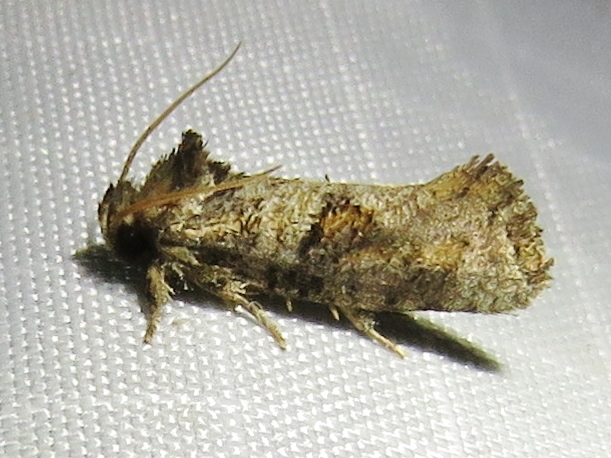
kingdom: Animalia
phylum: Arthropoda
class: Insecta
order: Lepidoptera
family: Tineidae
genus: Acrolophus
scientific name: Acrolophus piger
